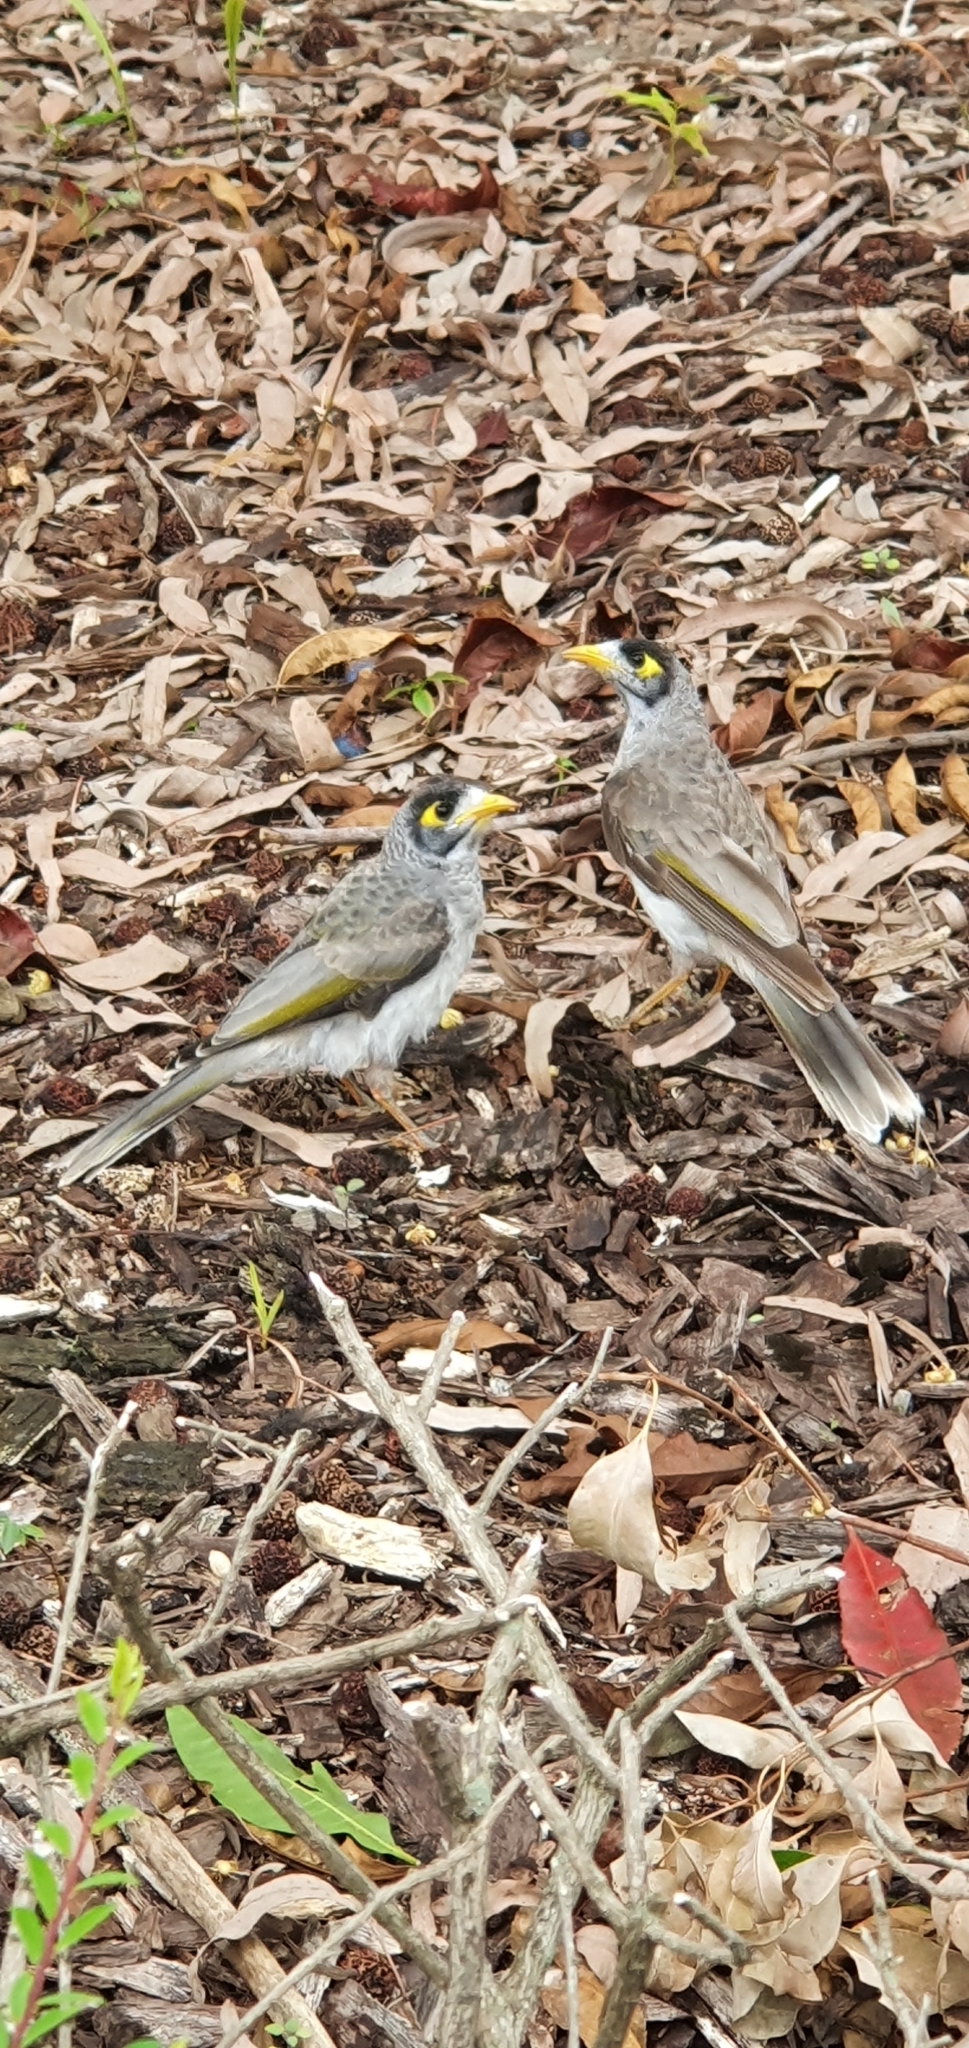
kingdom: Animalia
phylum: Chordata
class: Aves
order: Passeriformes
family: Meliphagidae
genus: Manorina
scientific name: Manorina melanocephala
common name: Noisy miner
